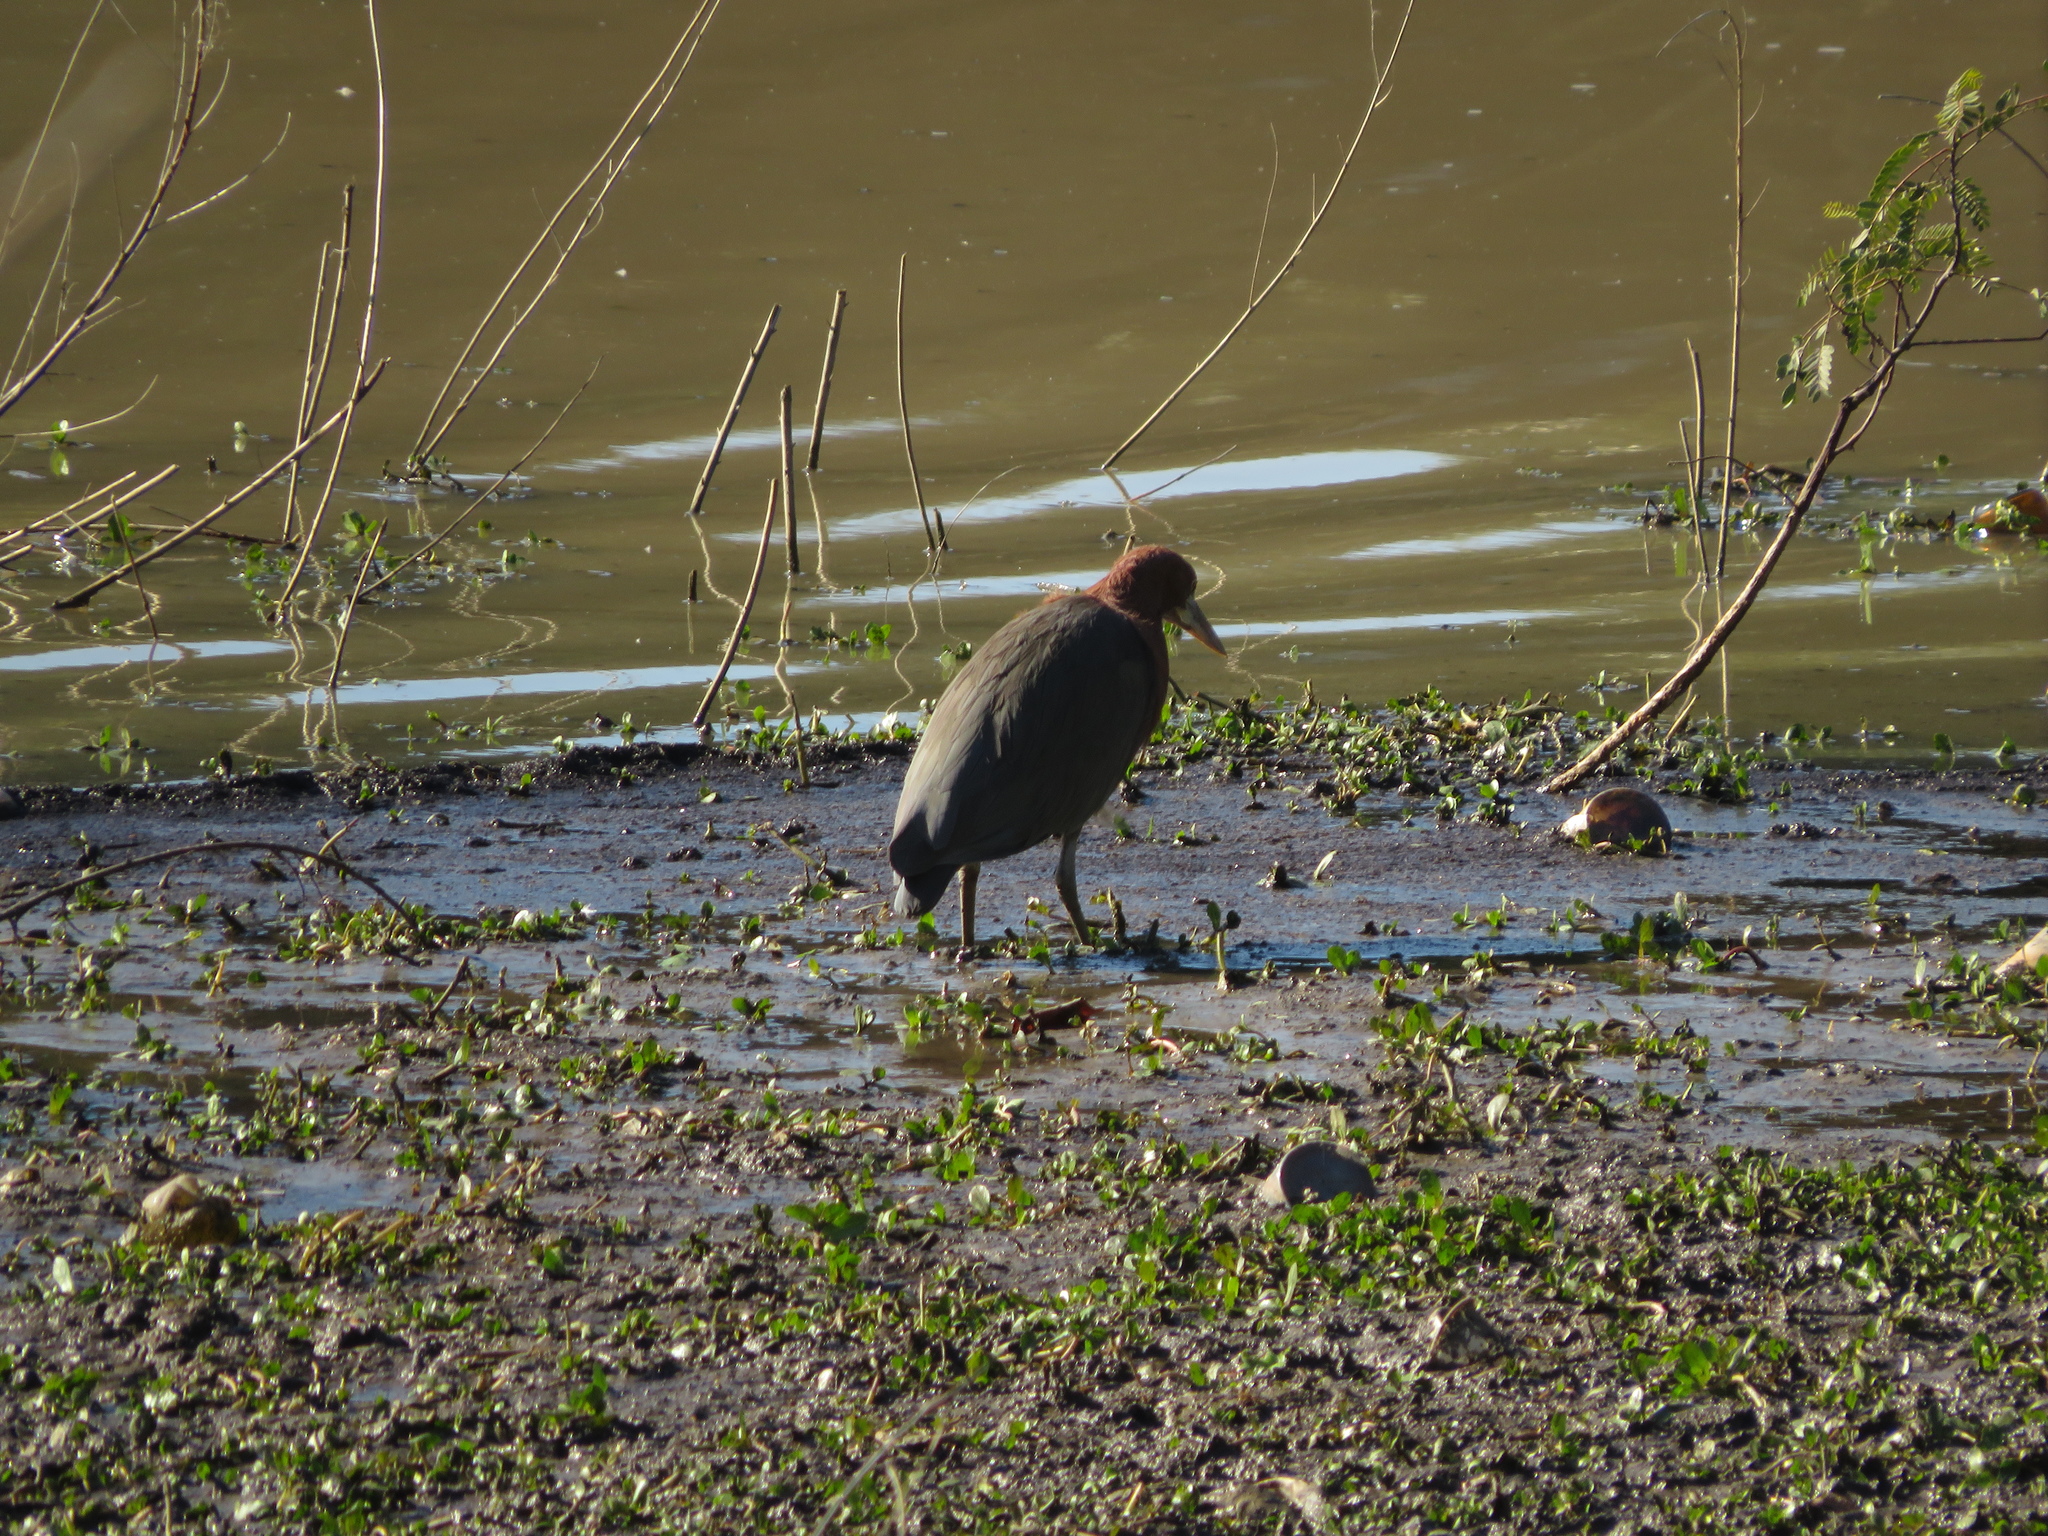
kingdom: Animalia
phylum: Chordata
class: Aves
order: Pelecaniformes
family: Ardeidae
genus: Tigrisoma
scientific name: Tigrisoma lineatum
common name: Rufescent tiger-heron
